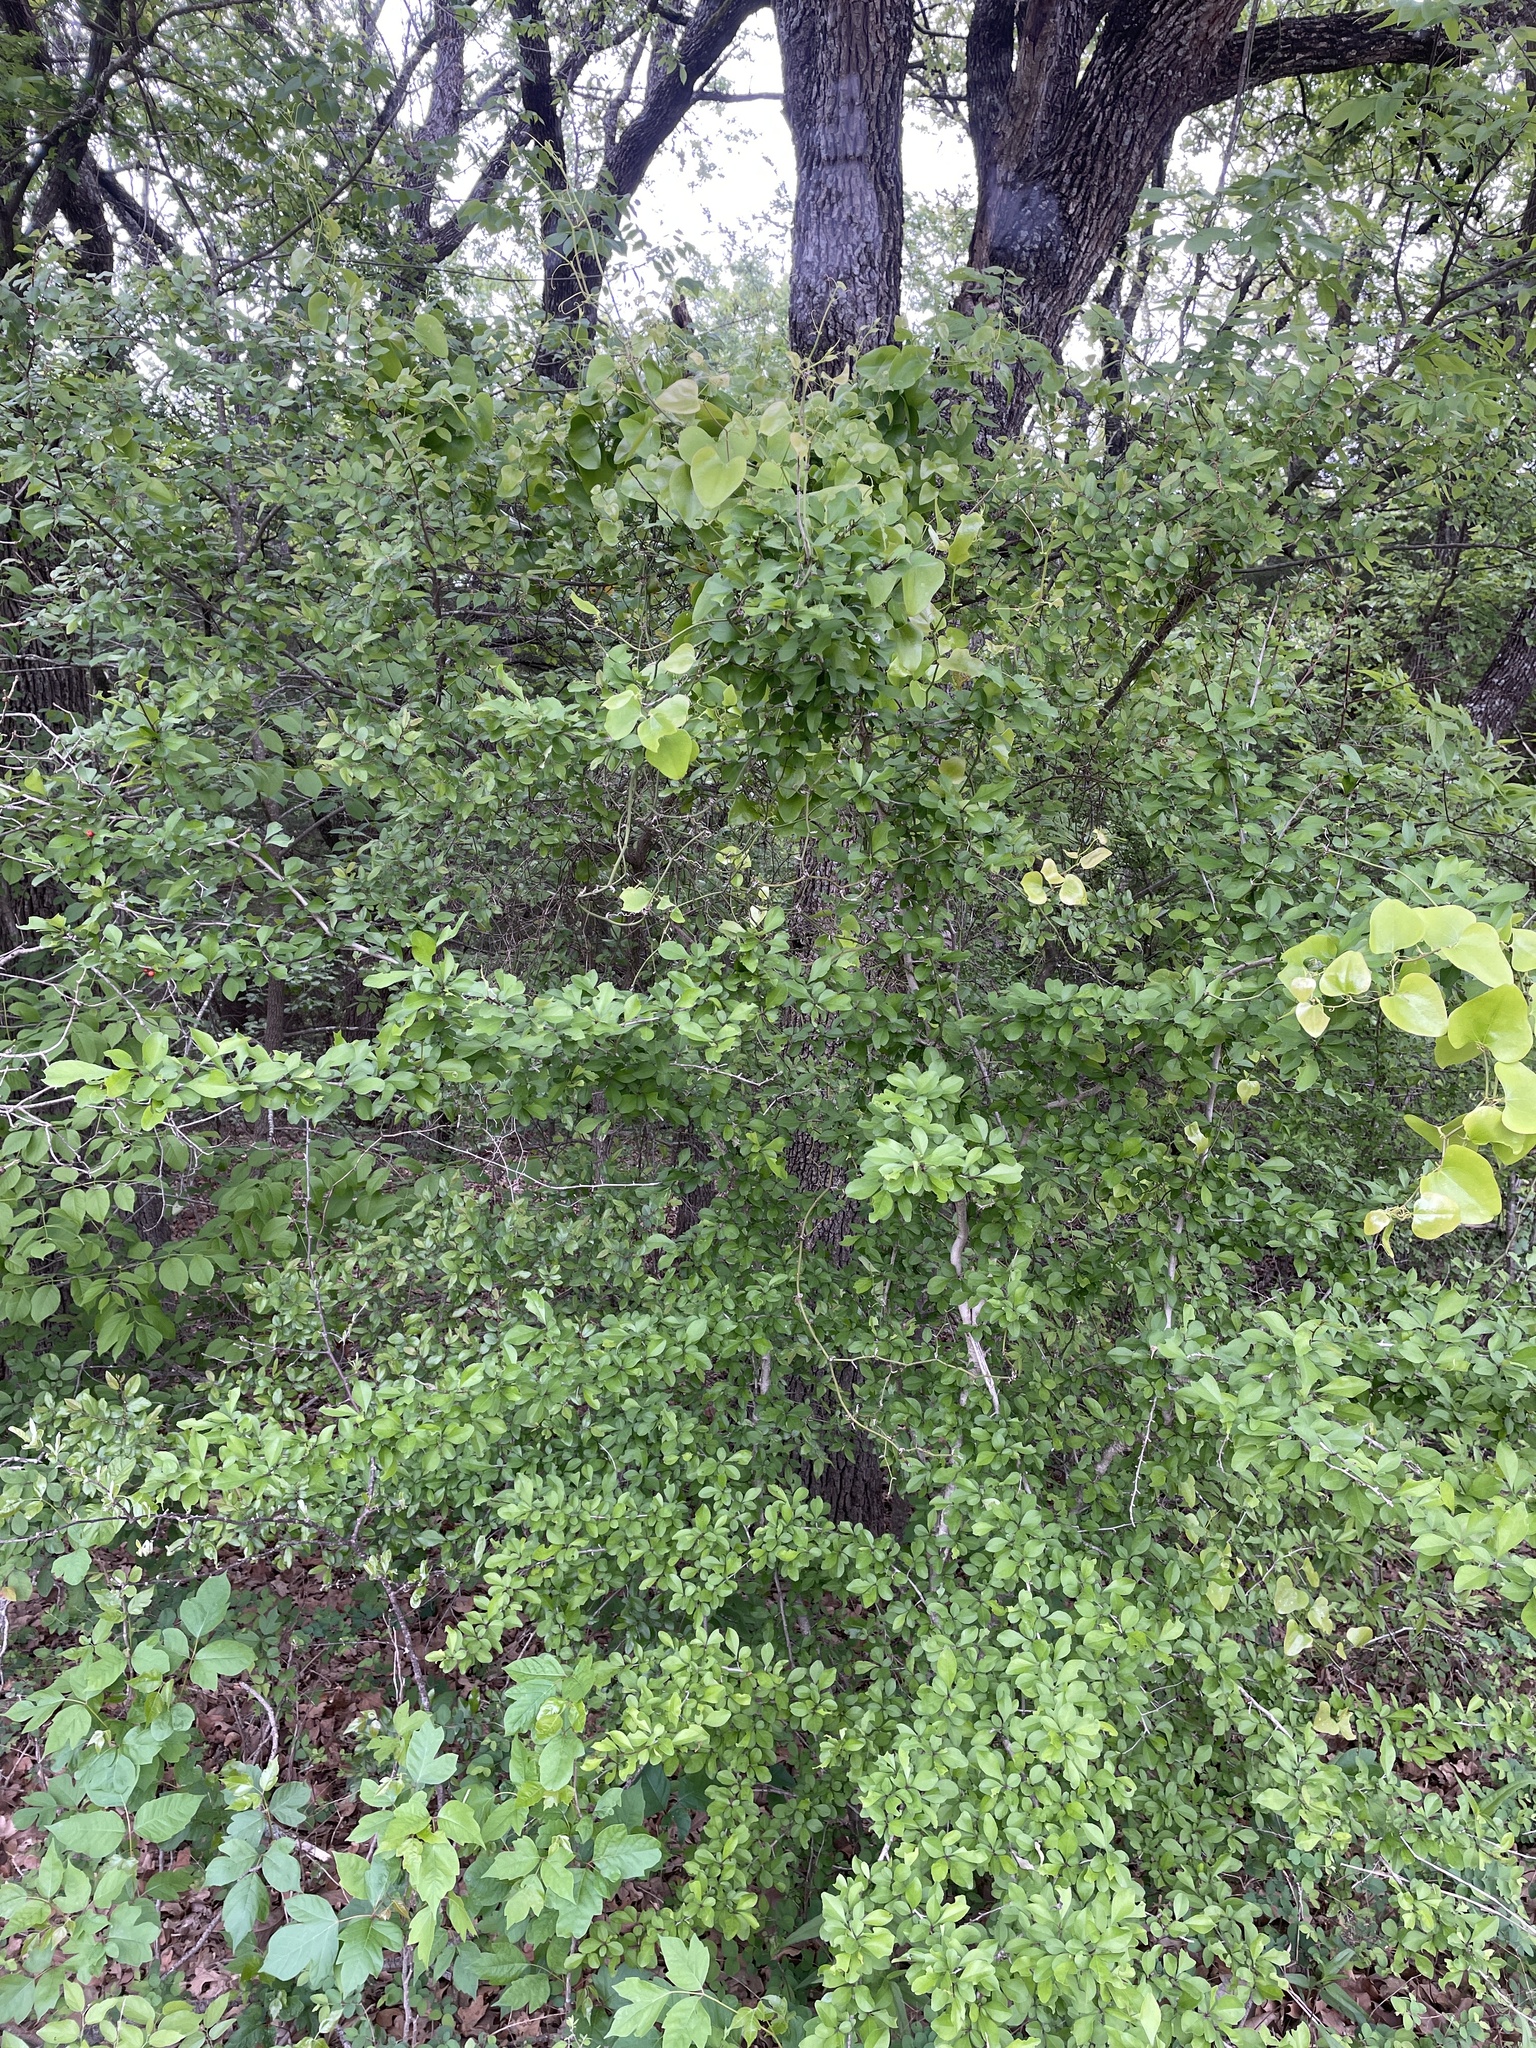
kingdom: Plantae
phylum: Tracheophyta
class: Magnoliopsida
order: Aquifoliales
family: Aquifoliaceae
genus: Ilex
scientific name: Ilex decidua
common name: Possum-haw
